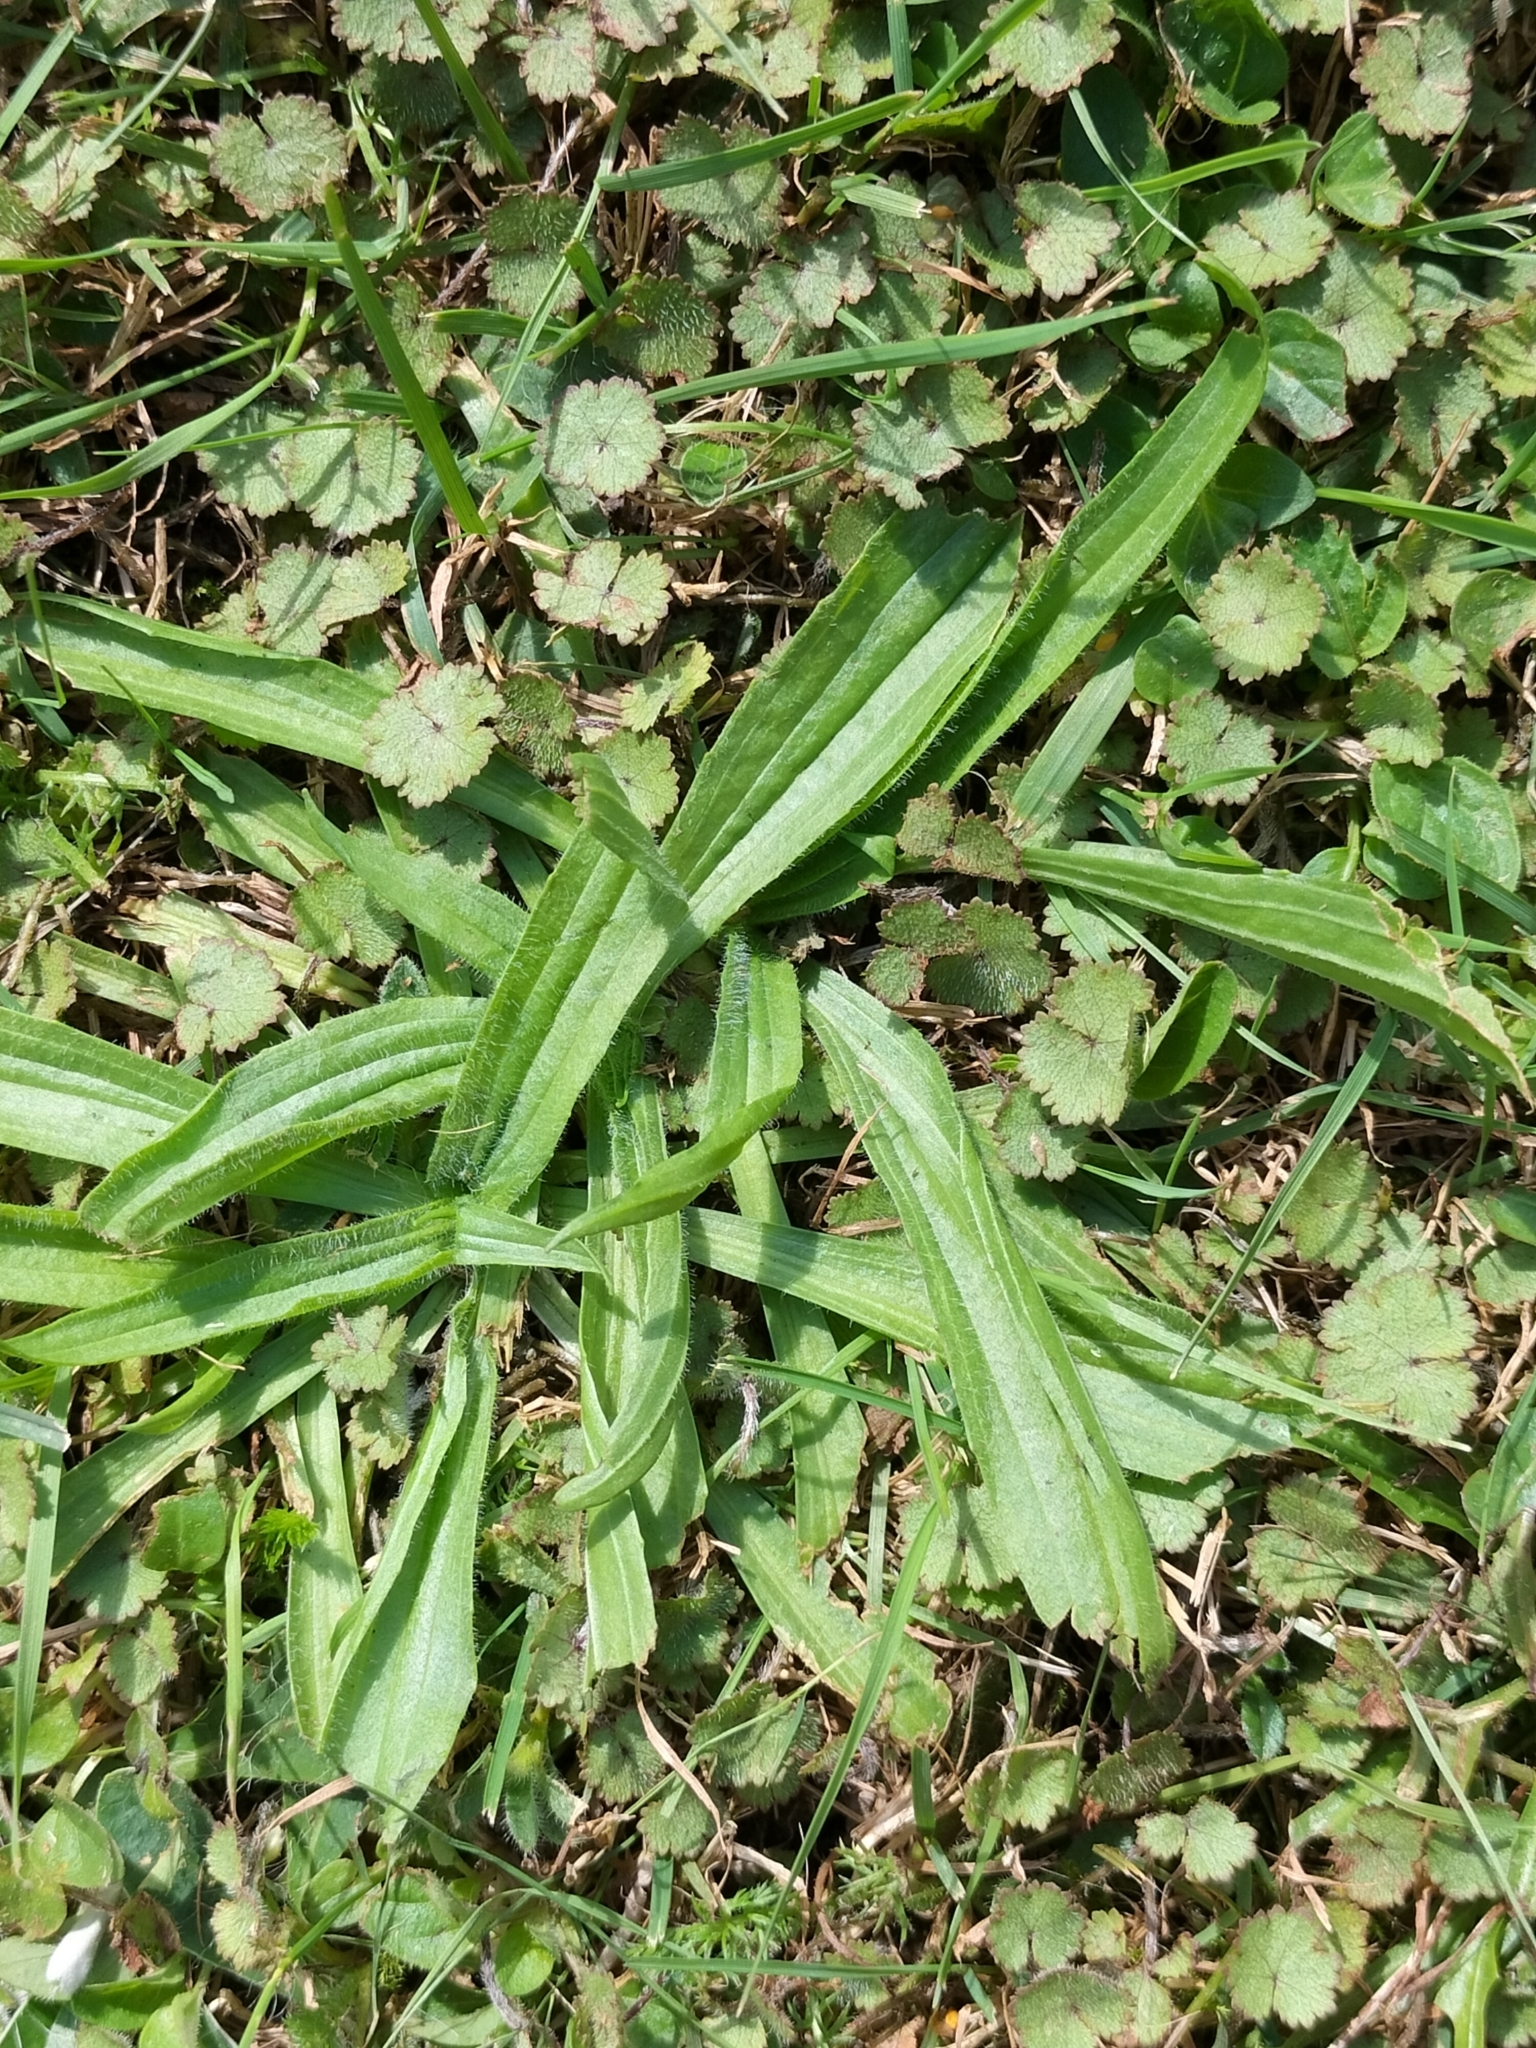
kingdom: Plantae
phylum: Tracheophyta
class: Magnoliopsida
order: Lamiales
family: Plantaginaceae
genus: Plantago
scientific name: Plantago lanceolata
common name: Ribwort plantain
